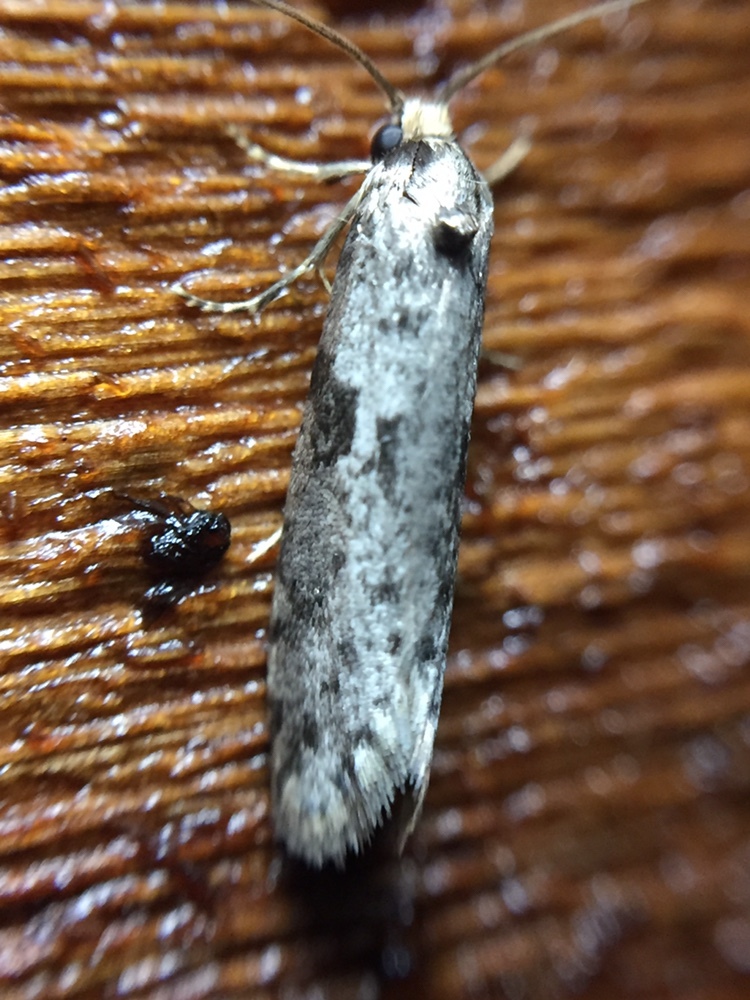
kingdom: Animalia
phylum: Arthropoda
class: Insecta
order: Lepidoptera
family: Psychidae
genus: Lepidoscia
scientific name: Lepidoscia protorna
